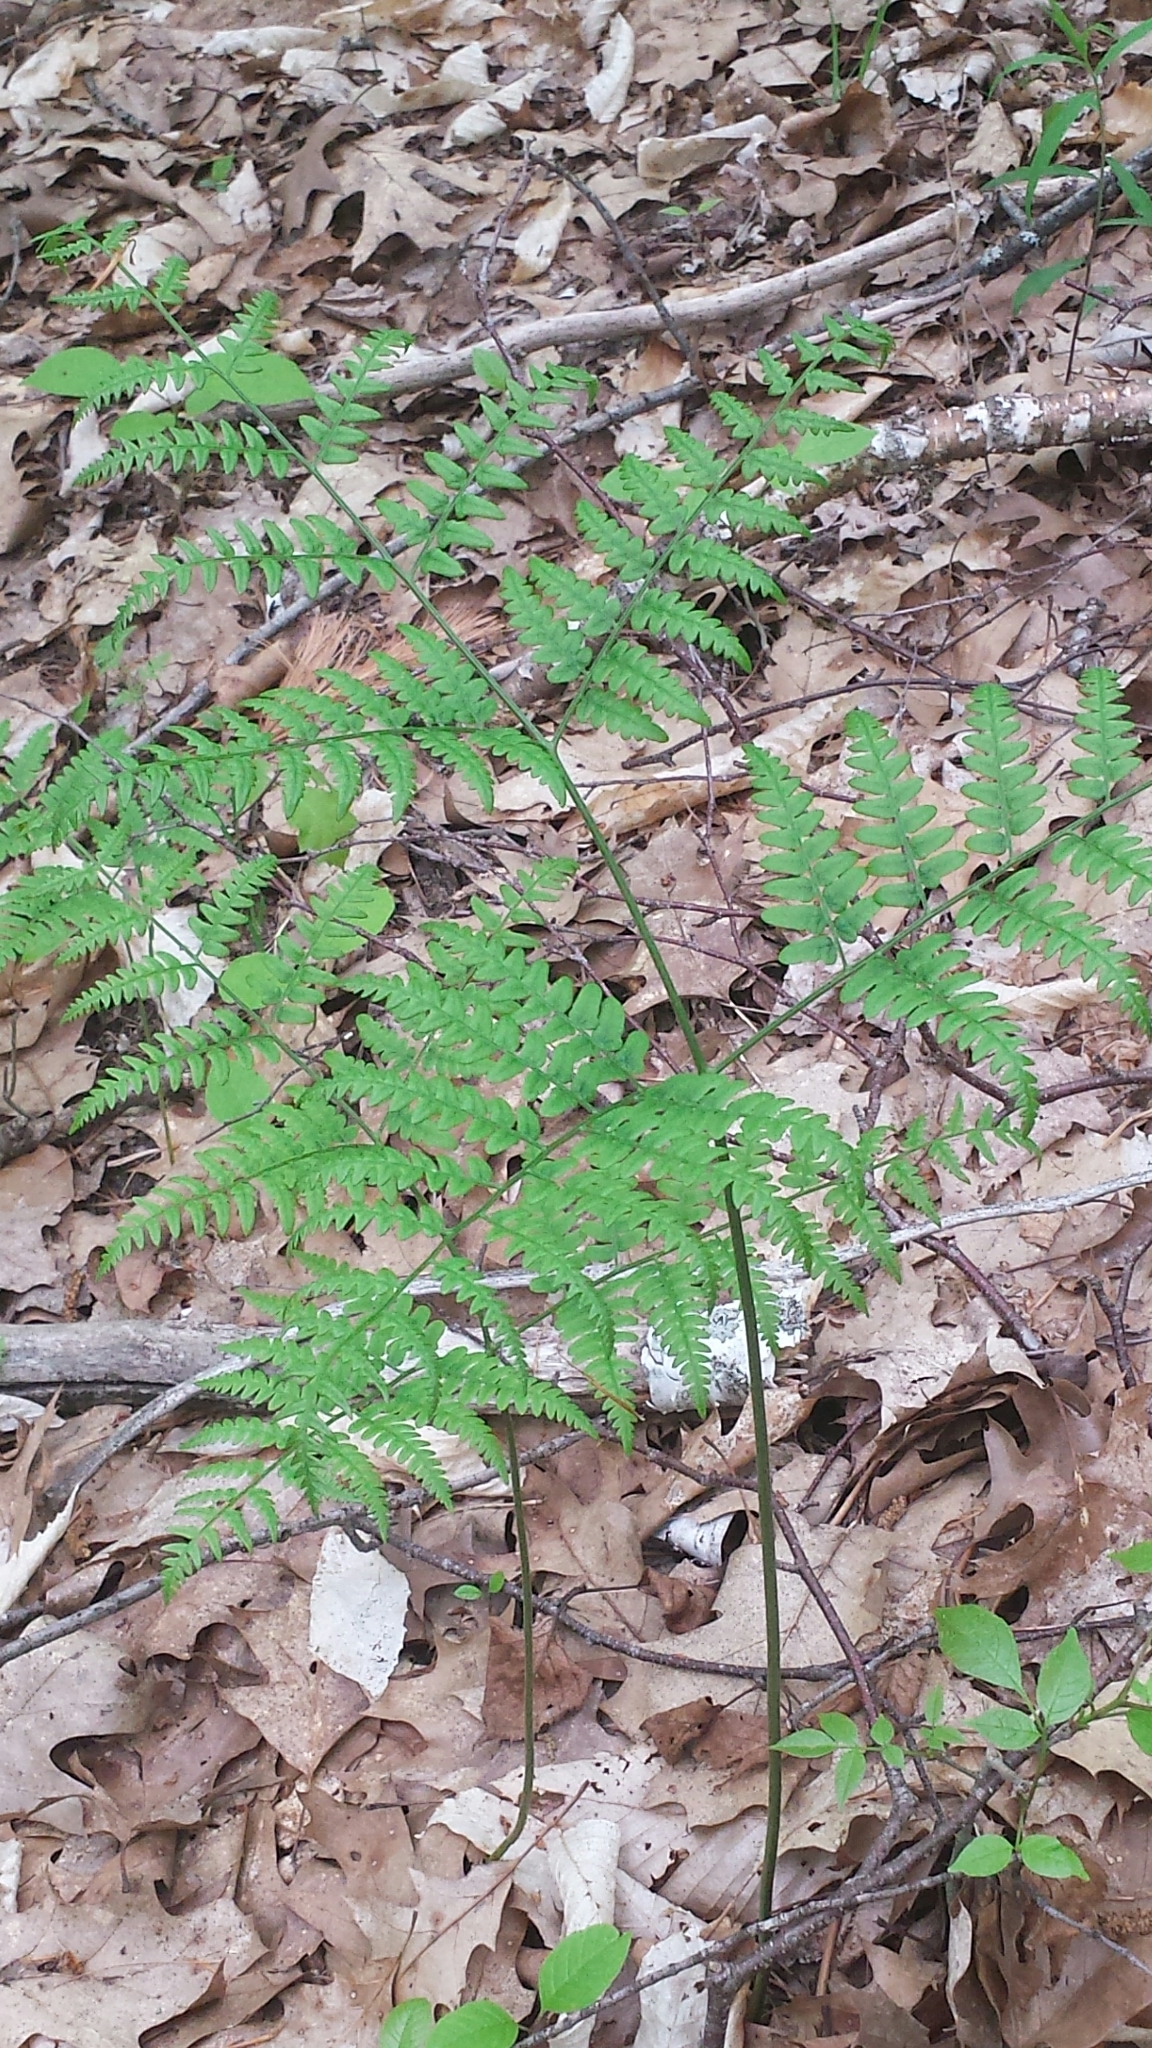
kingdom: Plantae
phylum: Tracheophyta
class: Polypodiopsida
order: Polypodiales
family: Dennstaedtiaceae
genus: Pteridium
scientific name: Pteridium aquilinum
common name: Bracken
